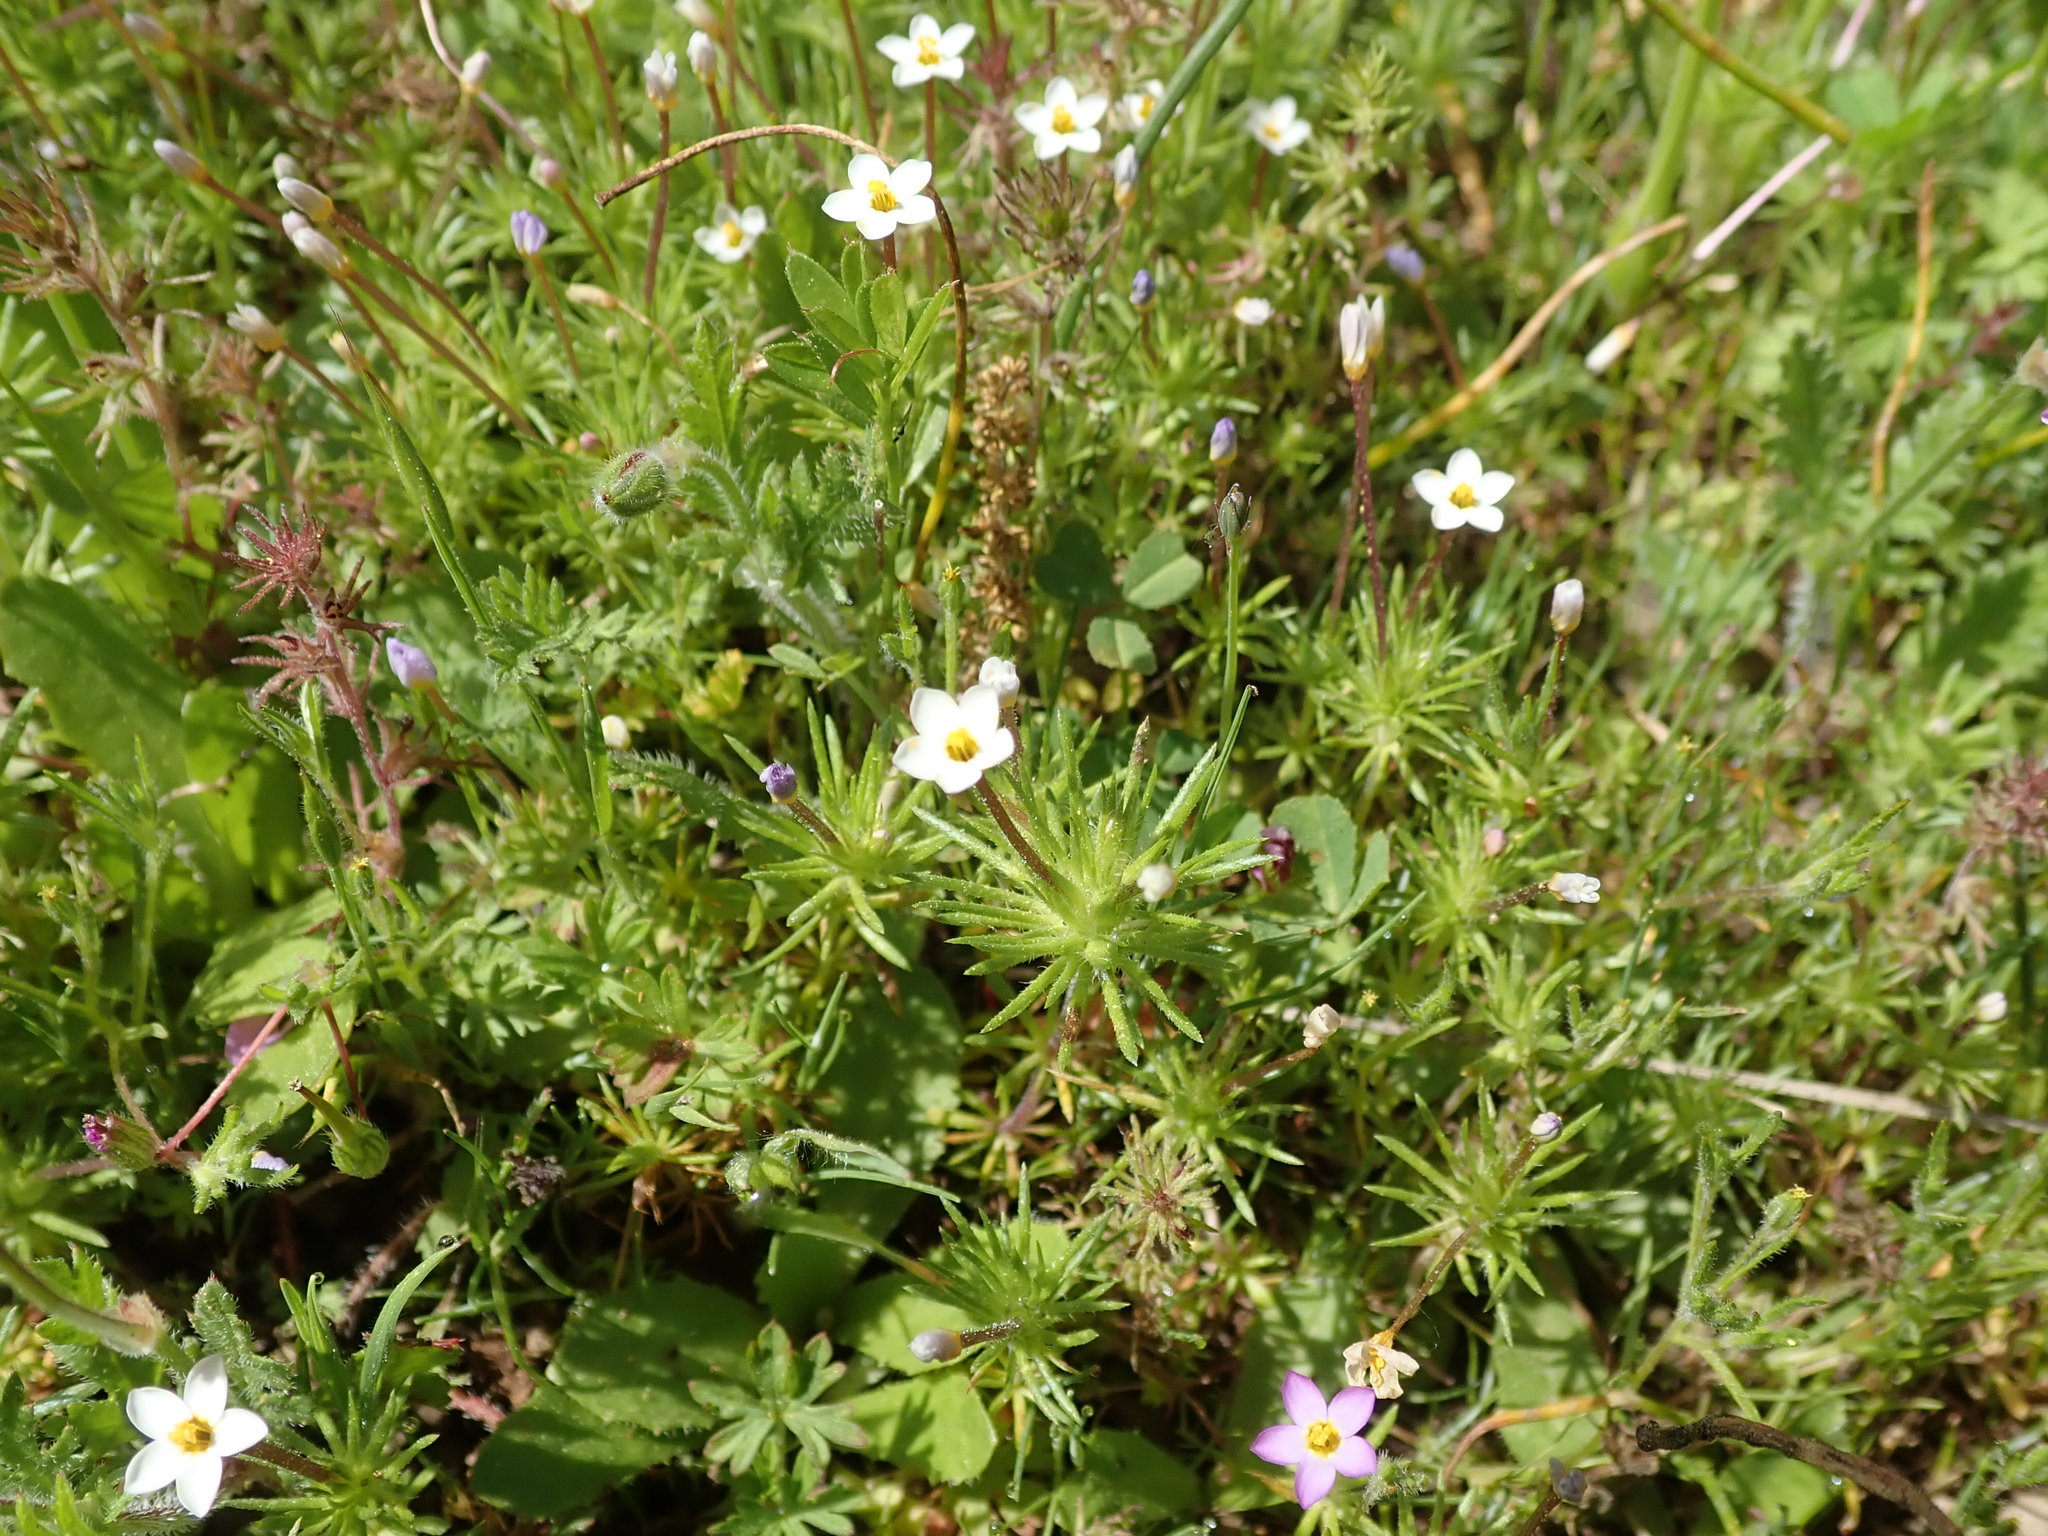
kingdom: Plantae
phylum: Tracheophyta
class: Magnoliopsida
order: Ericales
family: Polemoniaceae
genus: Leptosiphon
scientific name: Leptosiphon bicolor
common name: True babystars
